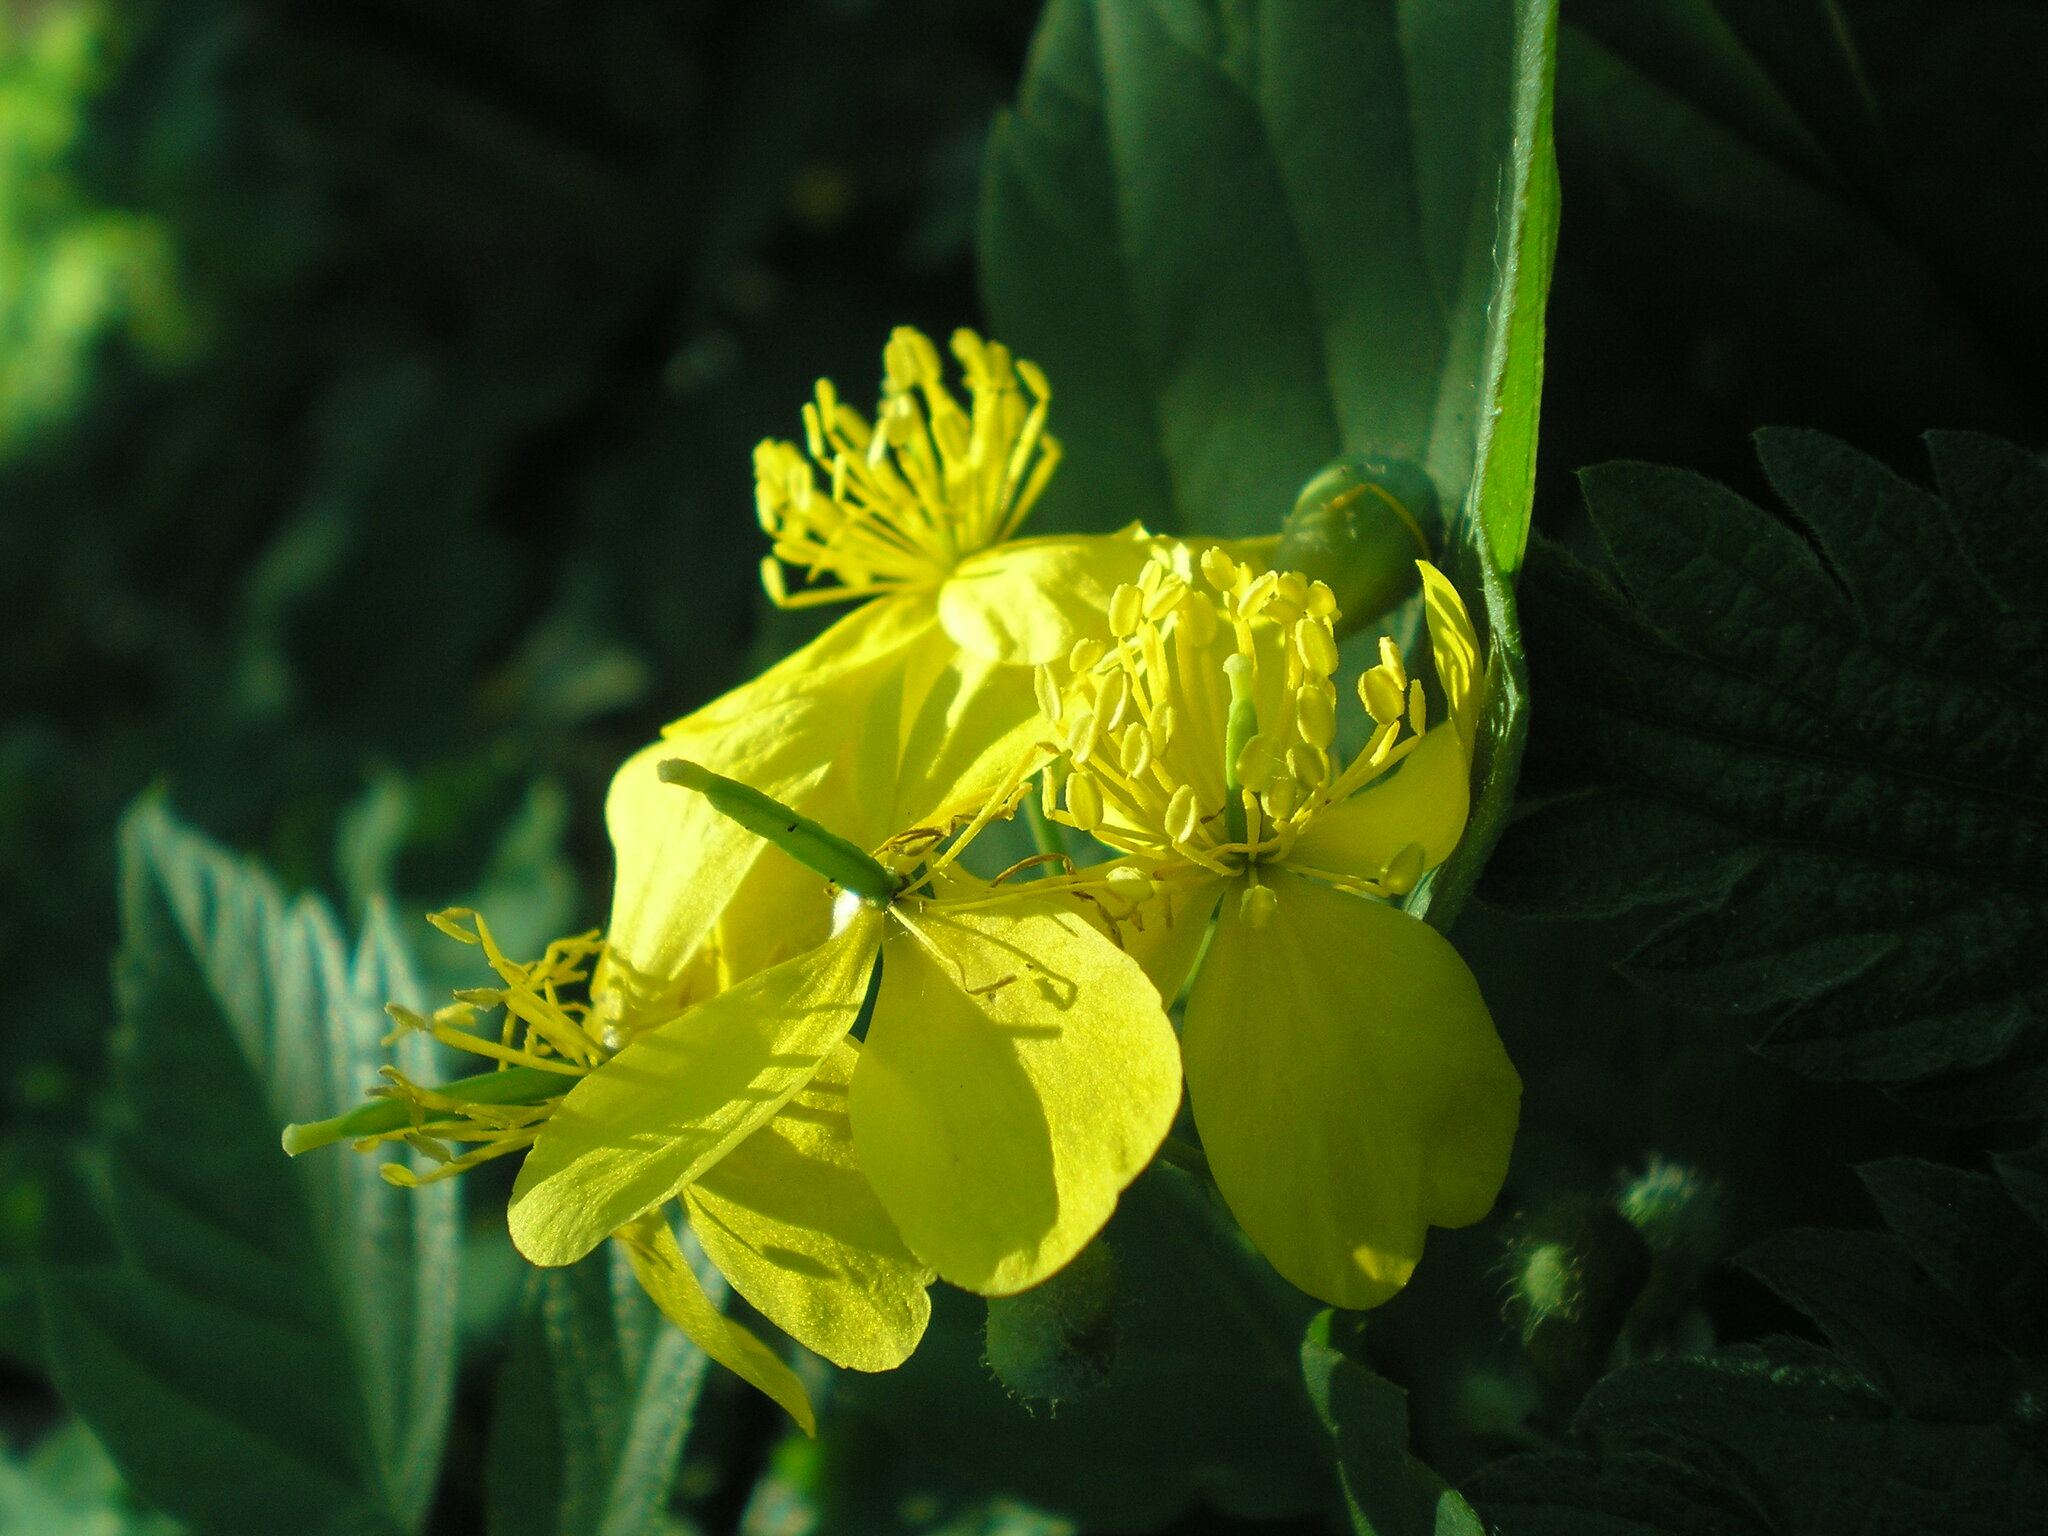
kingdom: Plantae
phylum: Tracheophyta
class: Magnoliopsida
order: Ranunculales
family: Papaveraceae
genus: Chelidonium
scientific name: Chelidonium majus
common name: Greater celandine
